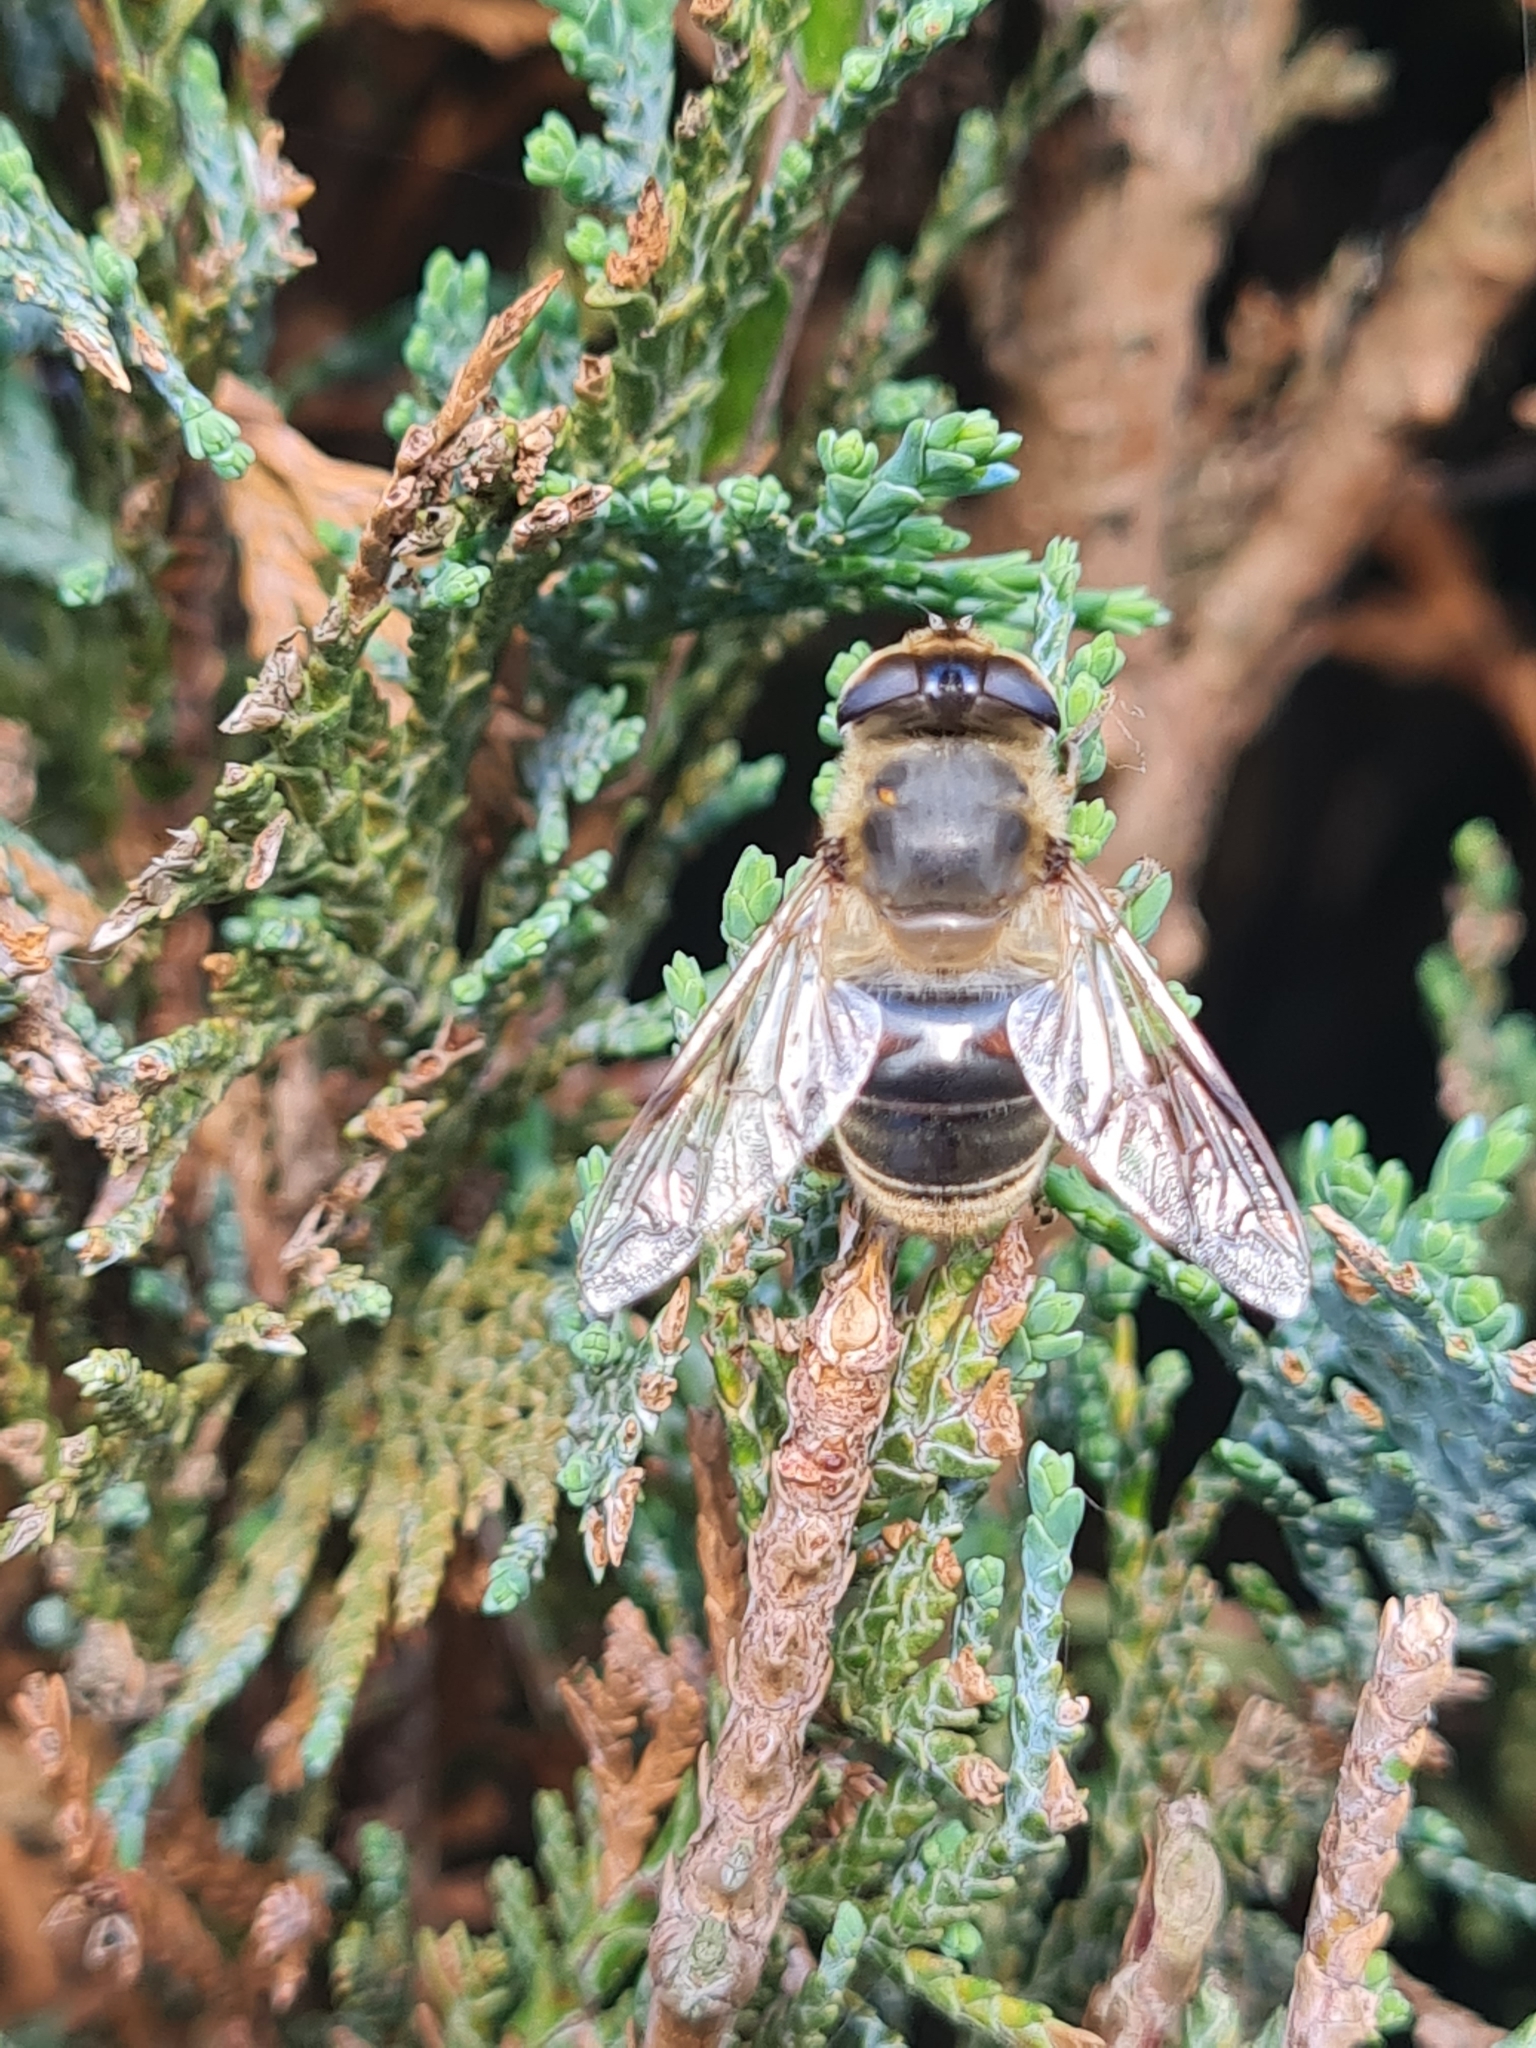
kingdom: Animalia
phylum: Arthropoda
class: Insecta
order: Diptera
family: Syrphidae
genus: Eristalis
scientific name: Eristalis tenax
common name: Drone fly
